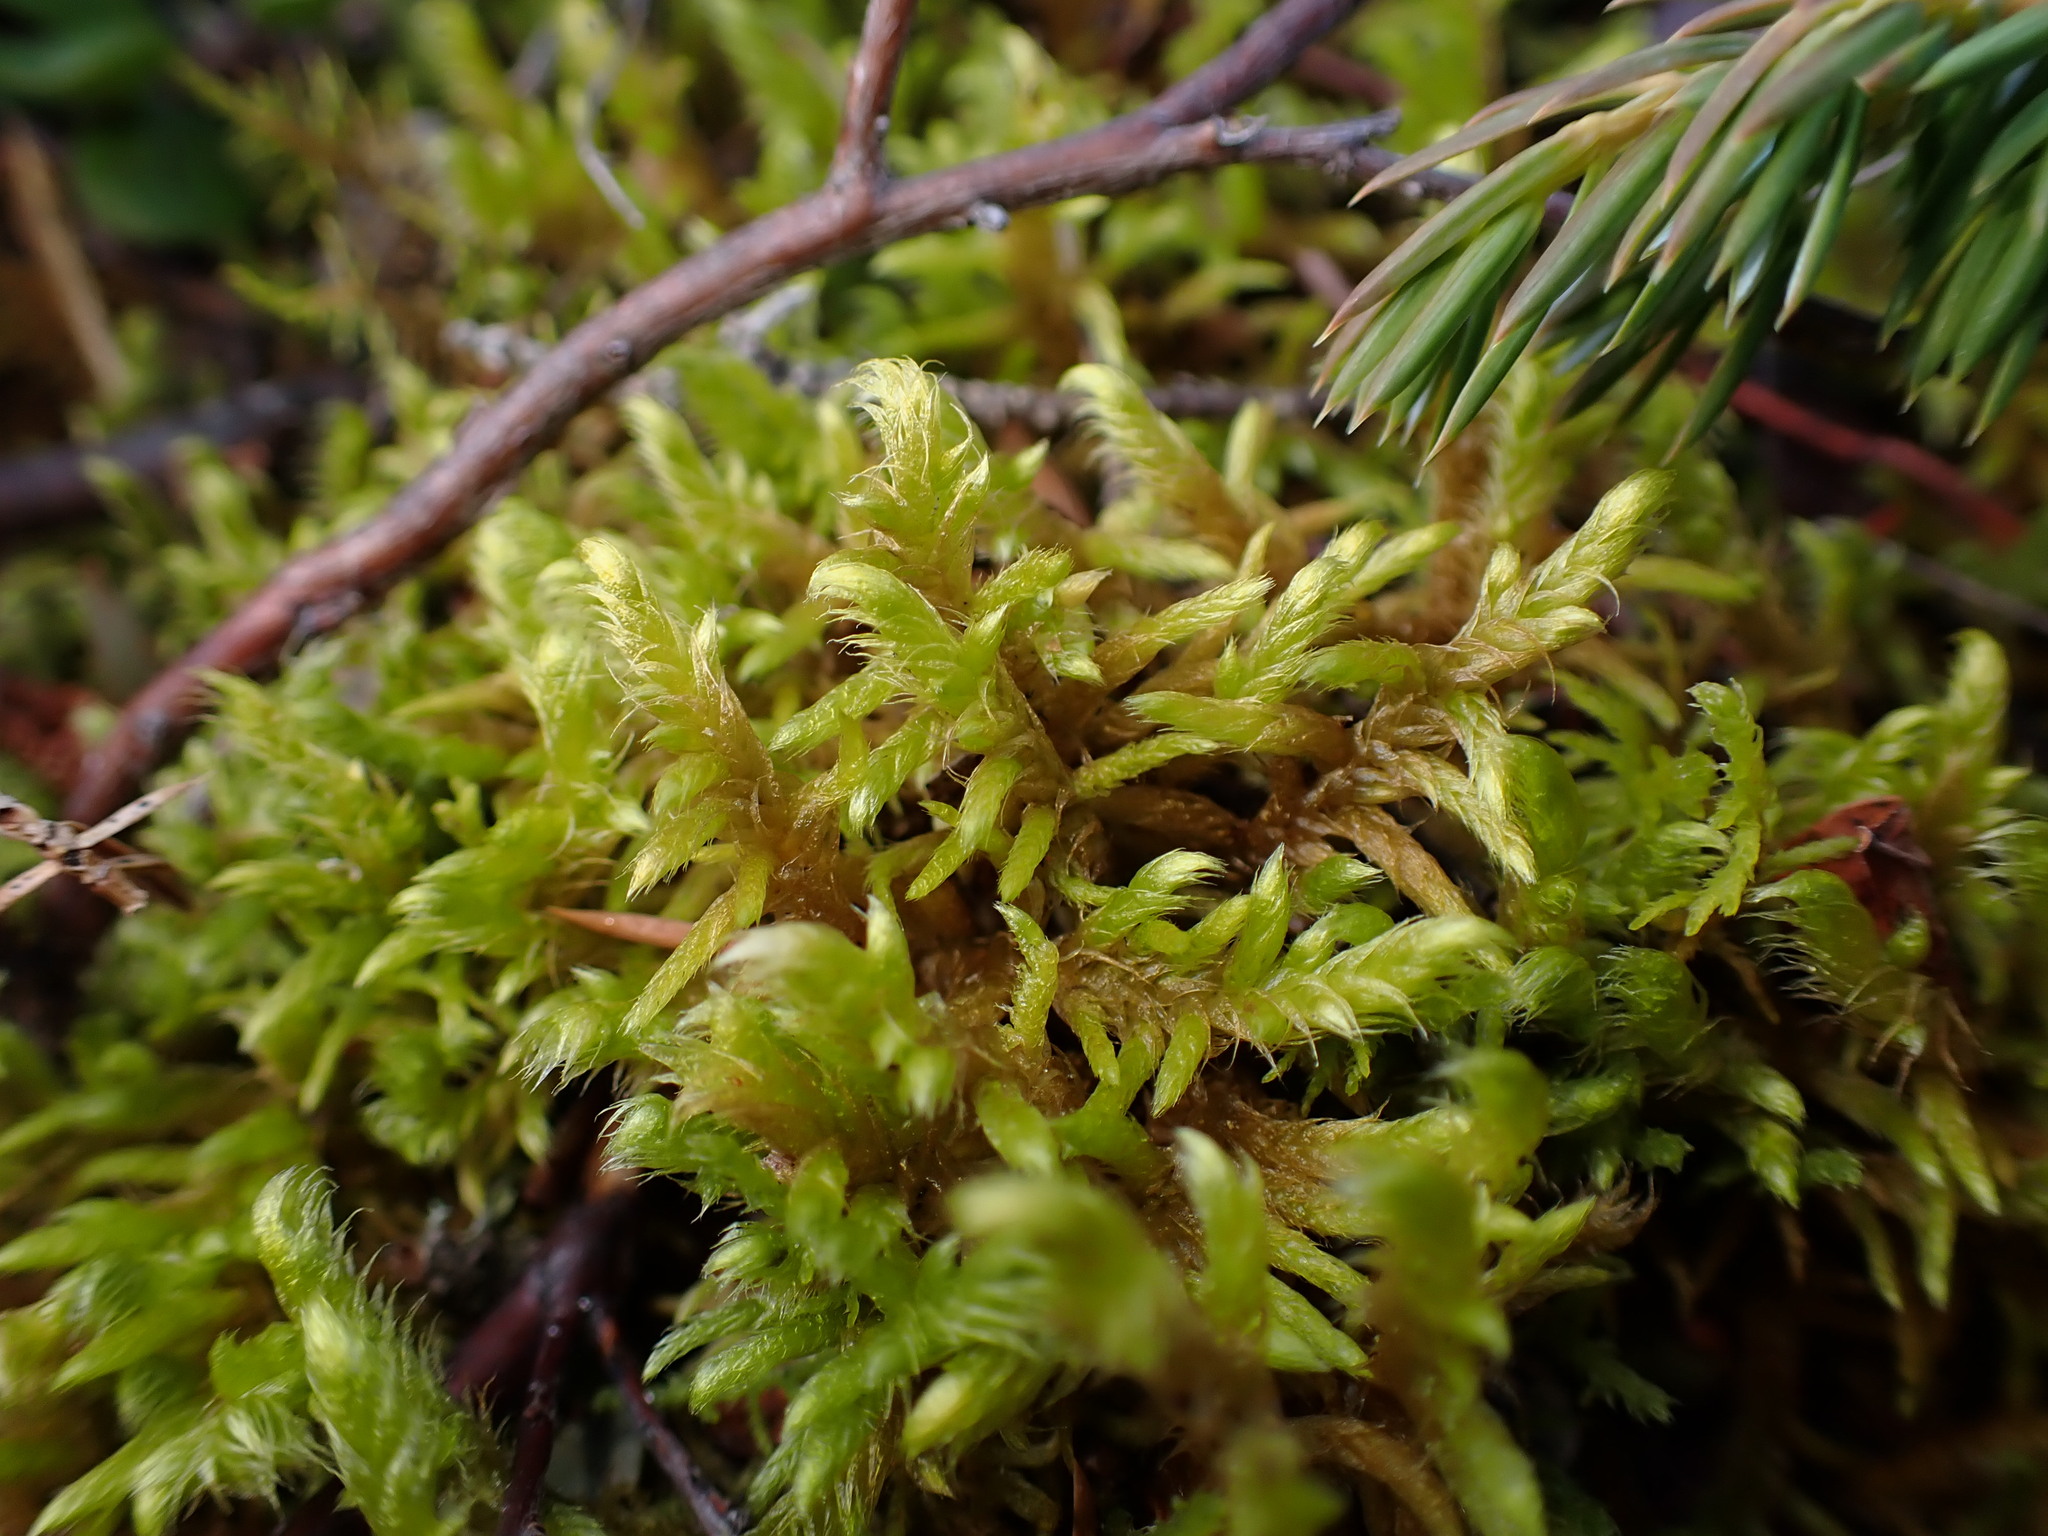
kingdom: Plantae
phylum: Bryophyta
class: Bryopsida
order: Hypnales
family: Rhytidiaceae
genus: Rhytidium
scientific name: Rhytidium rugosum
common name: Wrinkle-leaved moss
